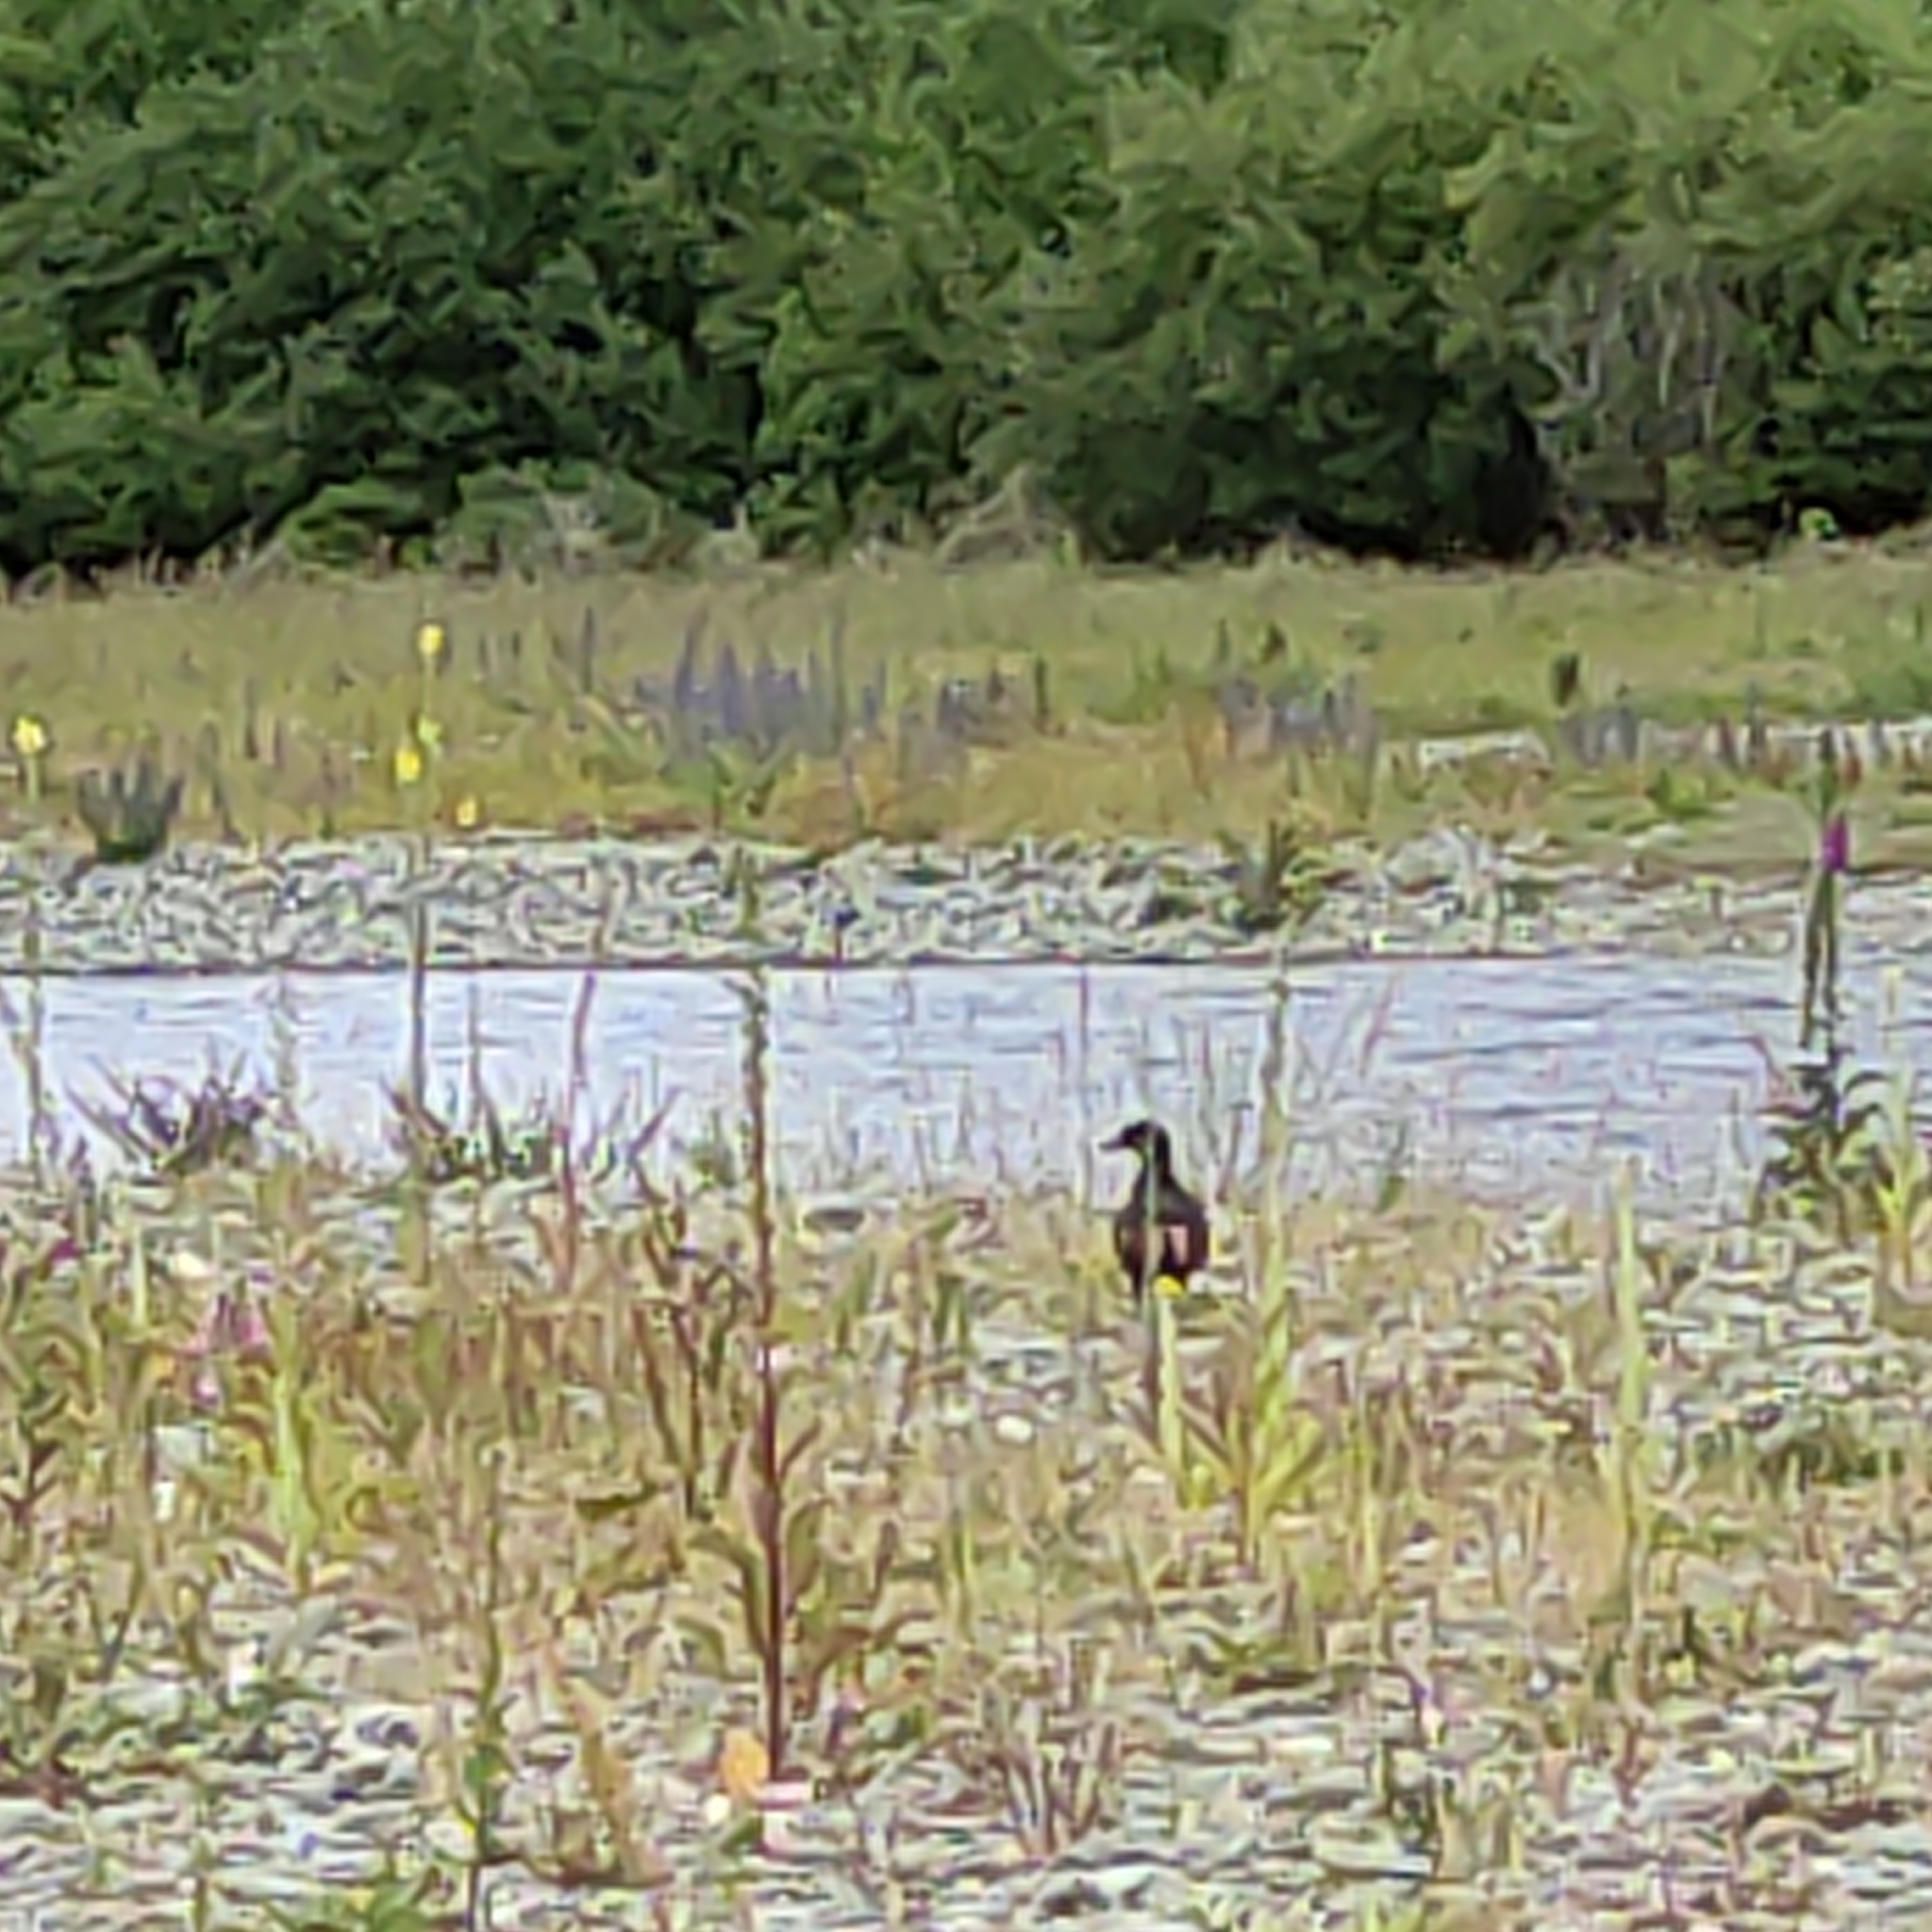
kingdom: Animalia
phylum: Chordata
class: Aves
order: Anseriformes
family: Anatidae
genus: Tadorna
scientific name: Tadorna variegata
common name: Paradise shelduck
